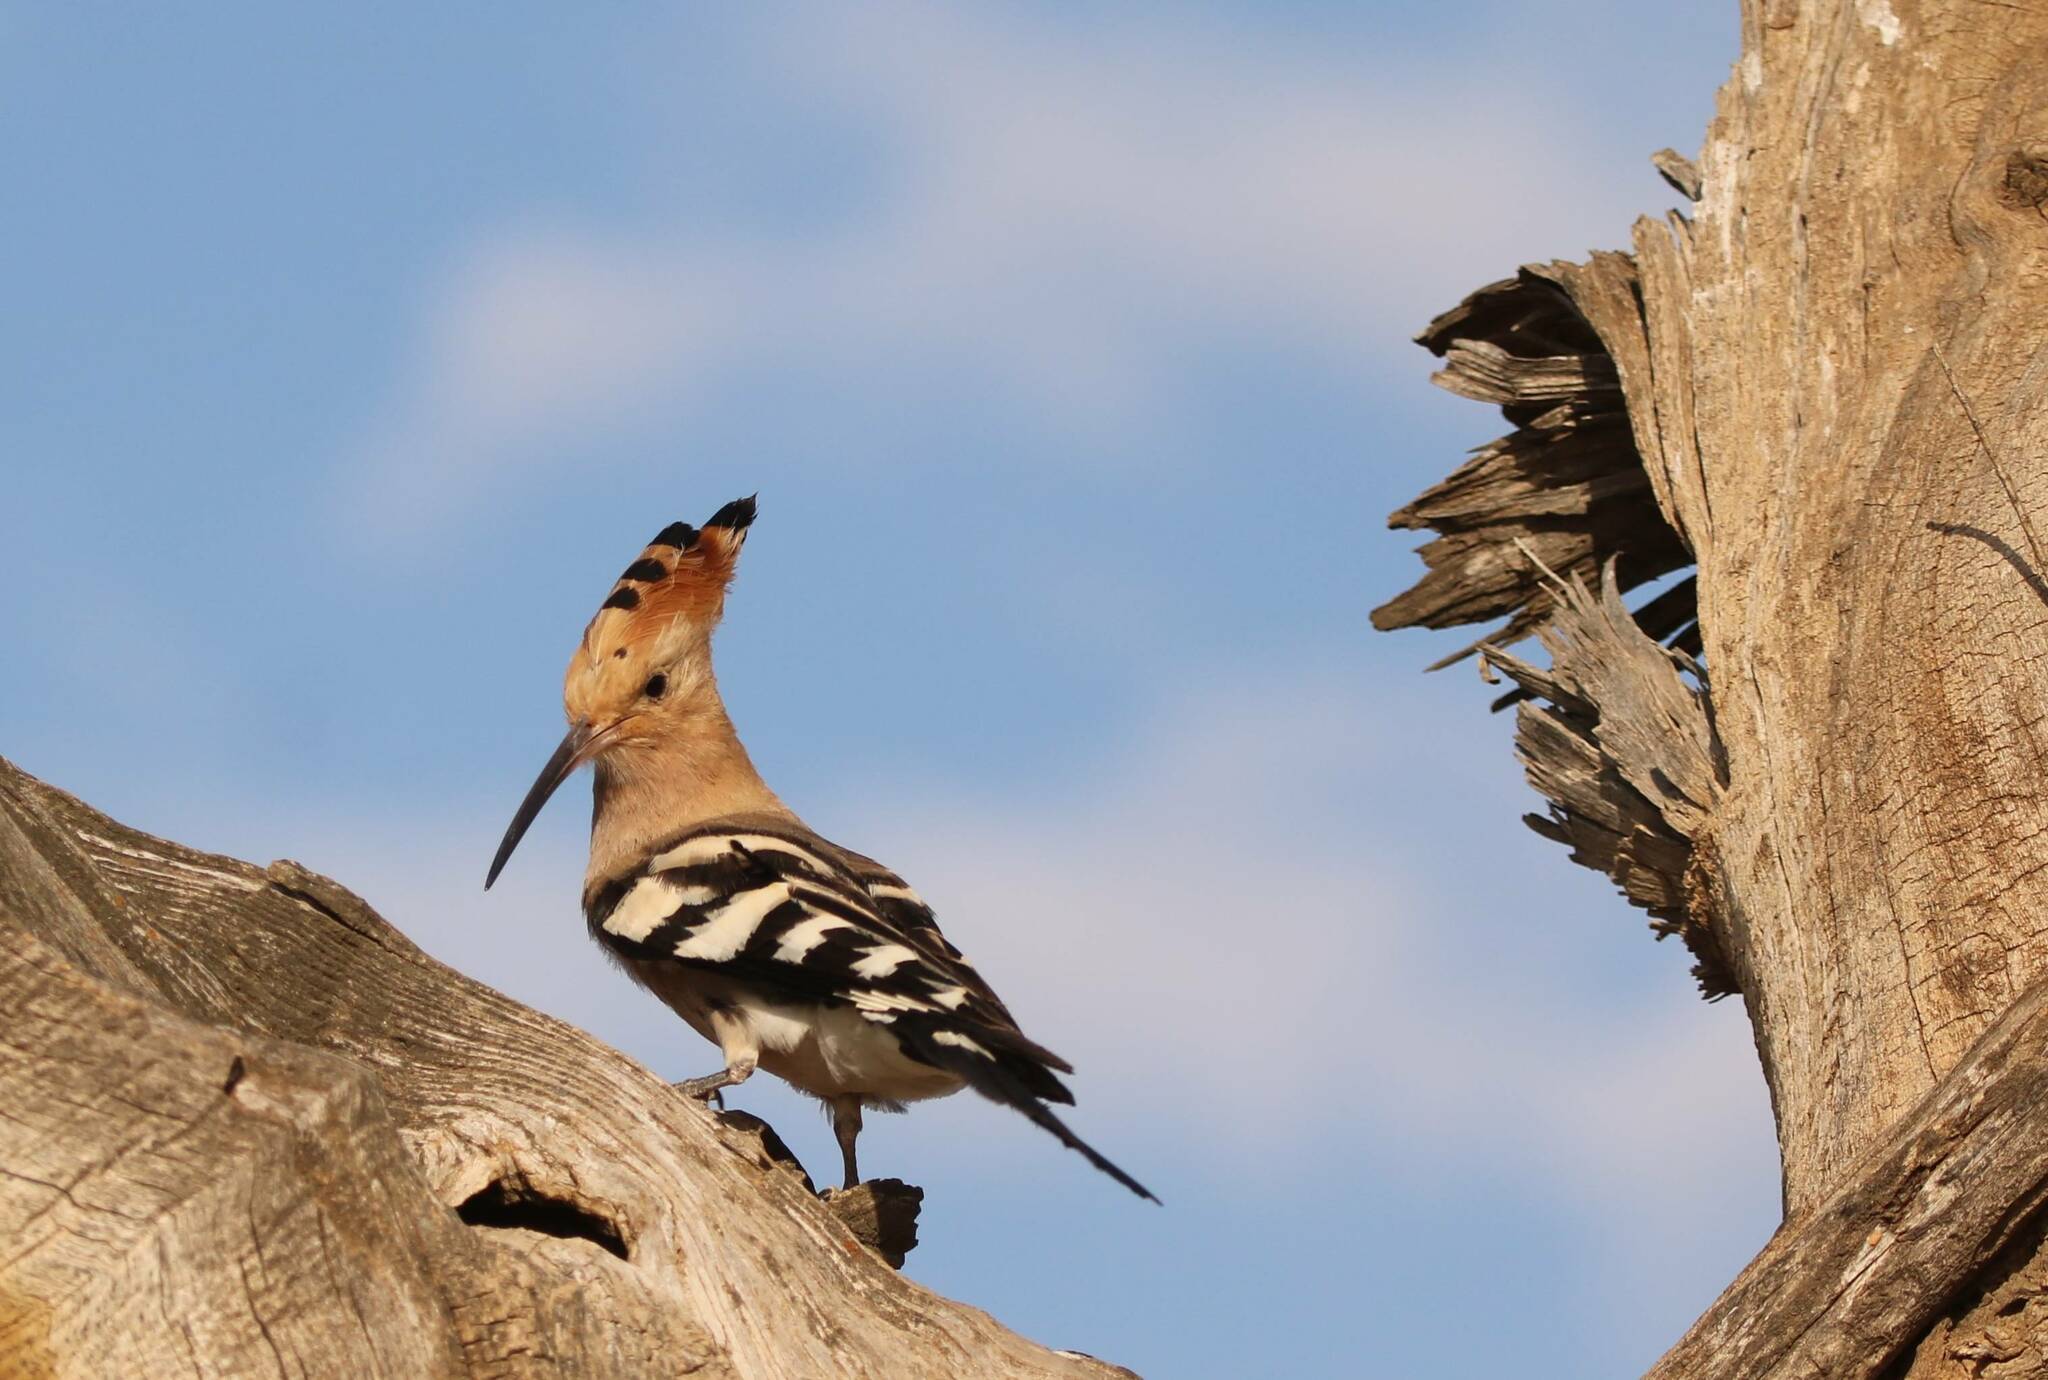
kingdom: Animalia
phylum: Chordata
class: Aves
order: Bucerotiformes
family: Upupidae
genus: Upupa
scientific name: Upupa epops
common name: Eurasian hoopoe
